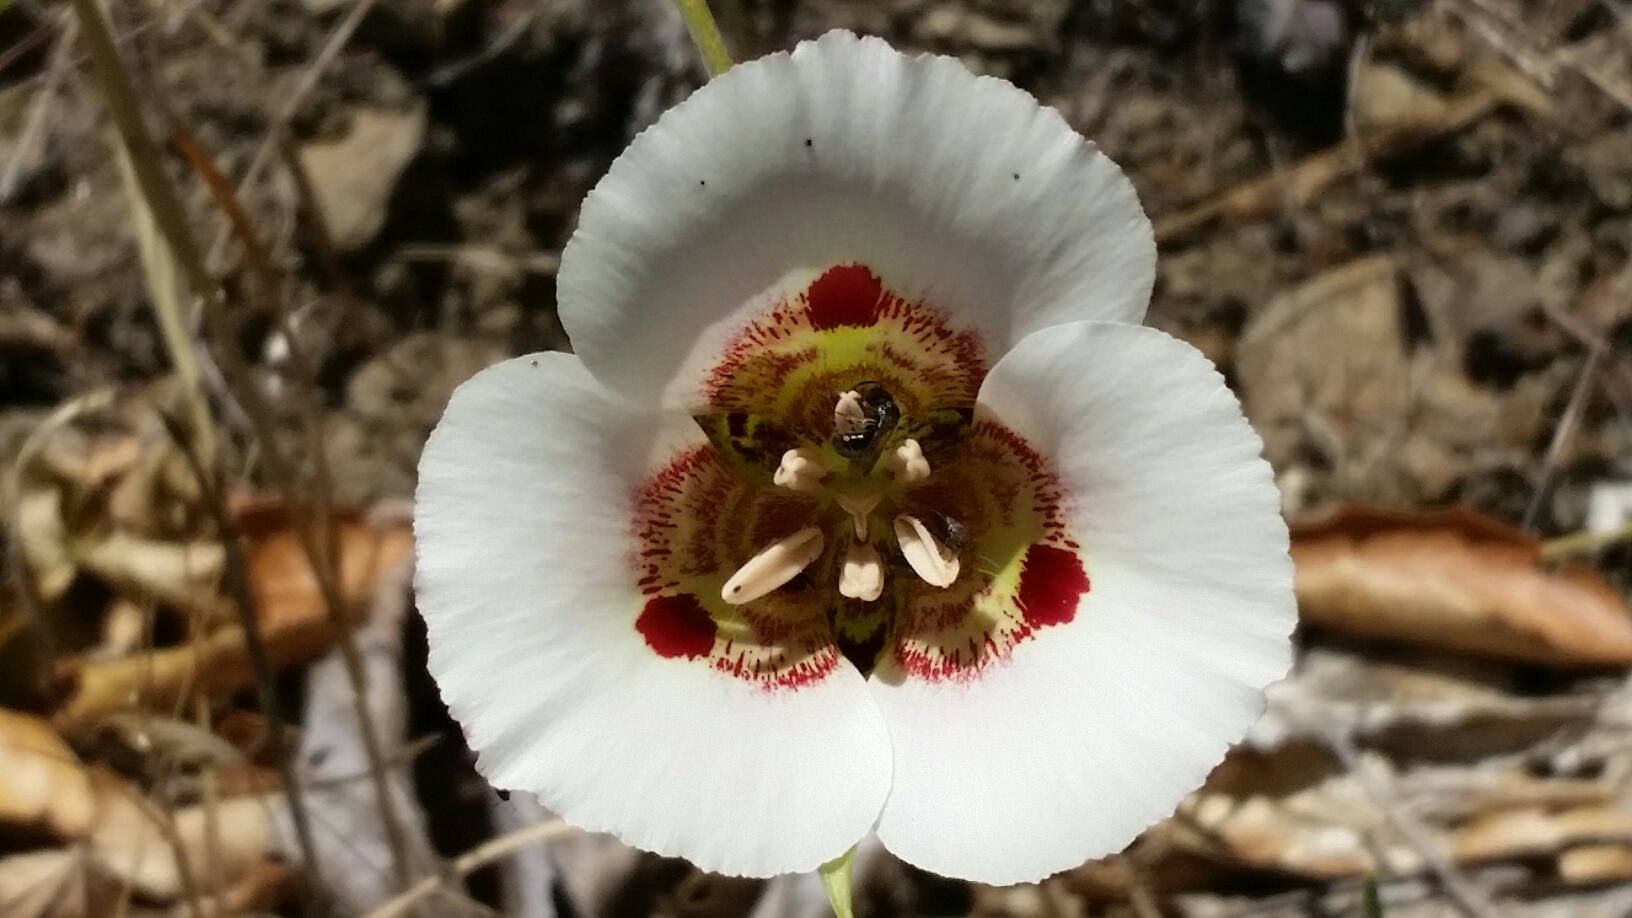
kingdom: Plantae
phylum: Tracheophyta
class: Liliopsida
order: Liliales
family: Liliaceae
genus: Calochortus
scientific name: Calochortus vestae
